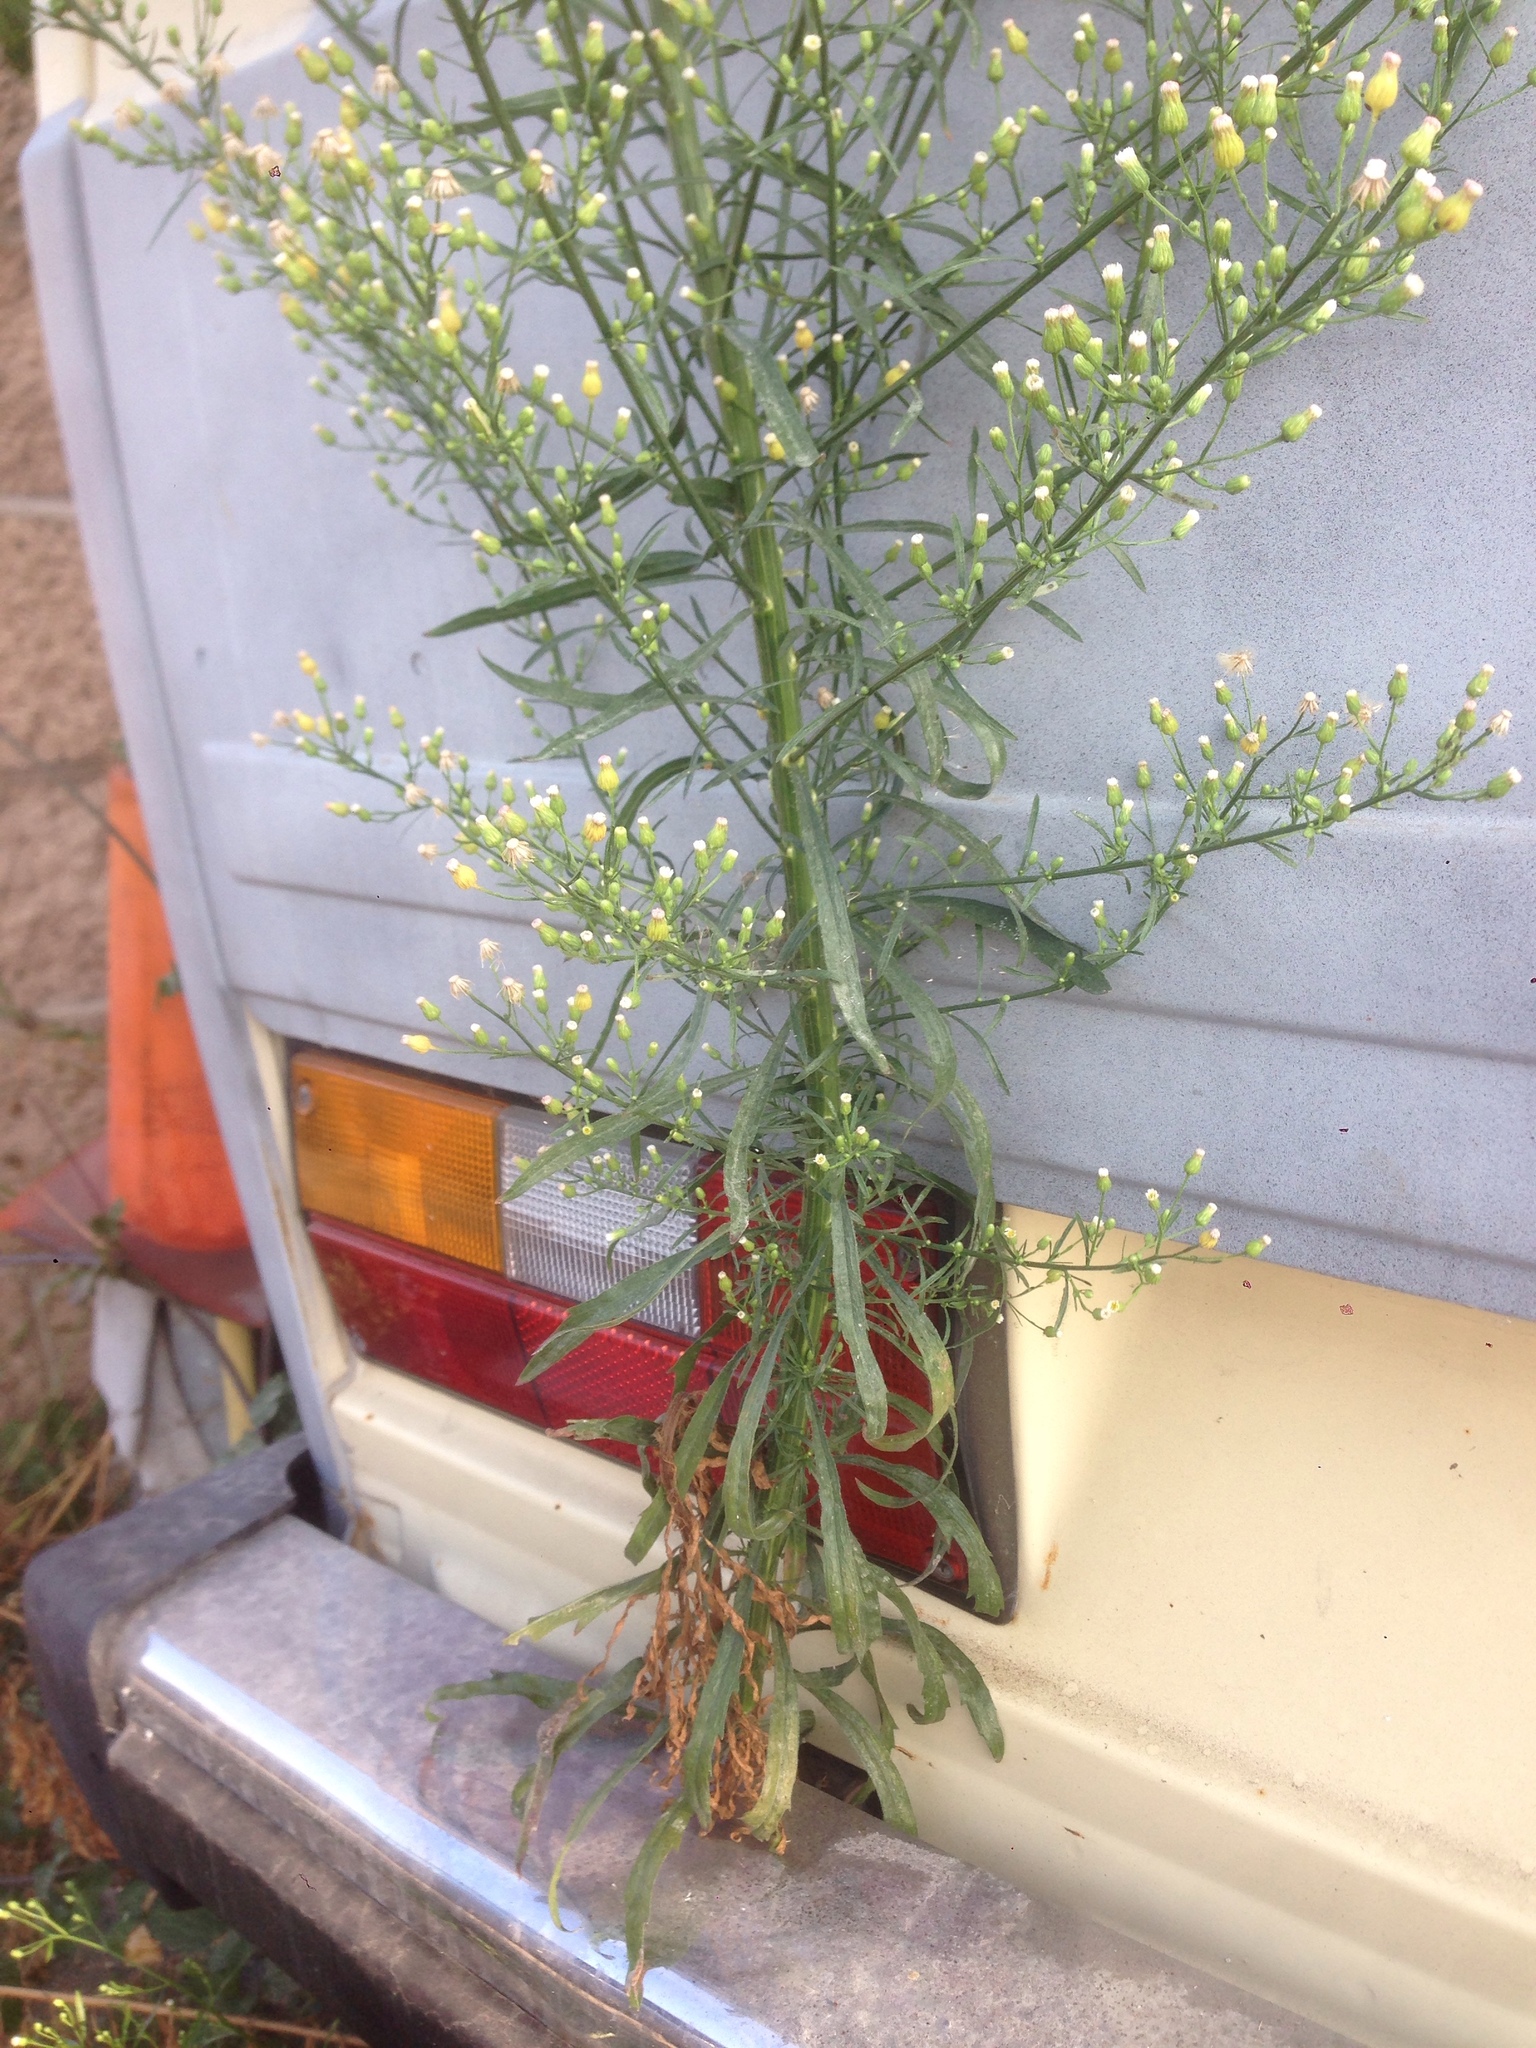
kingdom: Plantae
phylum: Tracheophyta
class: Magnoliopsida
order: Asterales
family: Asteraceae
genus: Erigeron
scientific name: Erigeron canadensis
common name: Canadian fleabane
